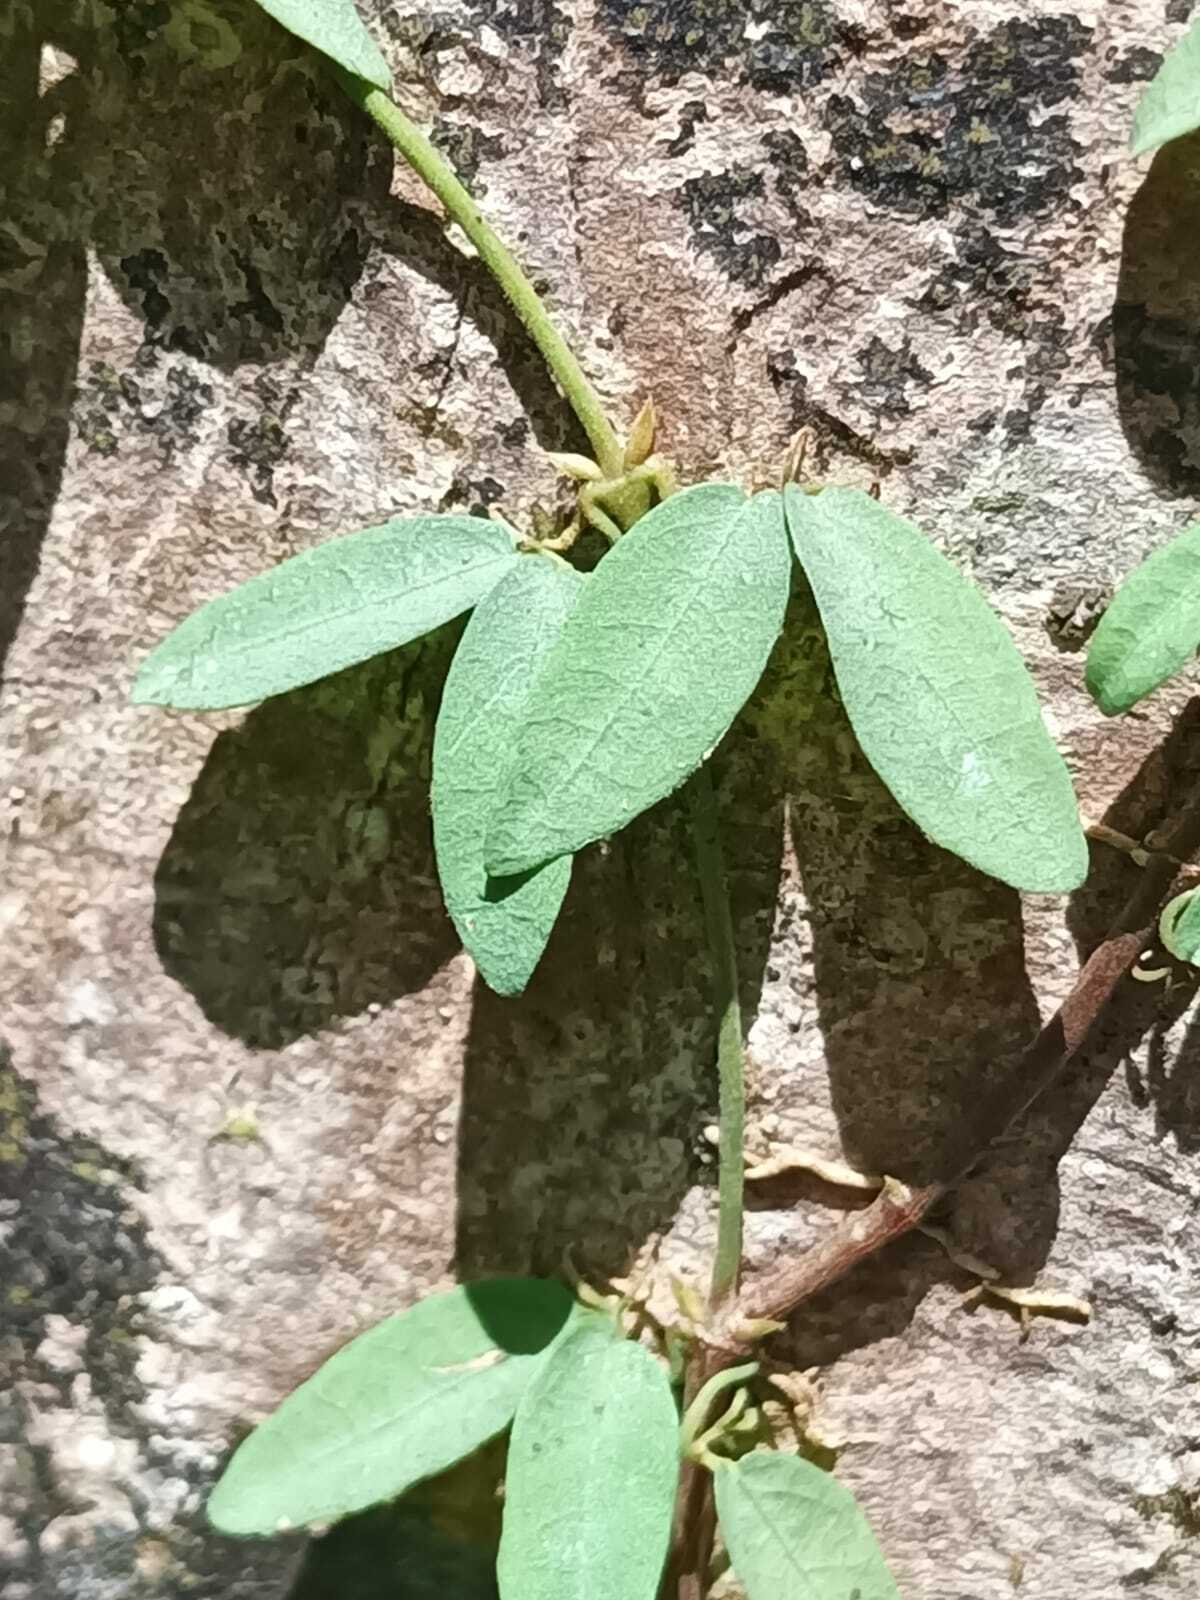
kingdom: Plantae
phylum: Tracheophyta
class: Magnoliopsida
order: Lamiales
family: Bignoniaceae
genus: Dolichandra
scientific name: Dolichandra
